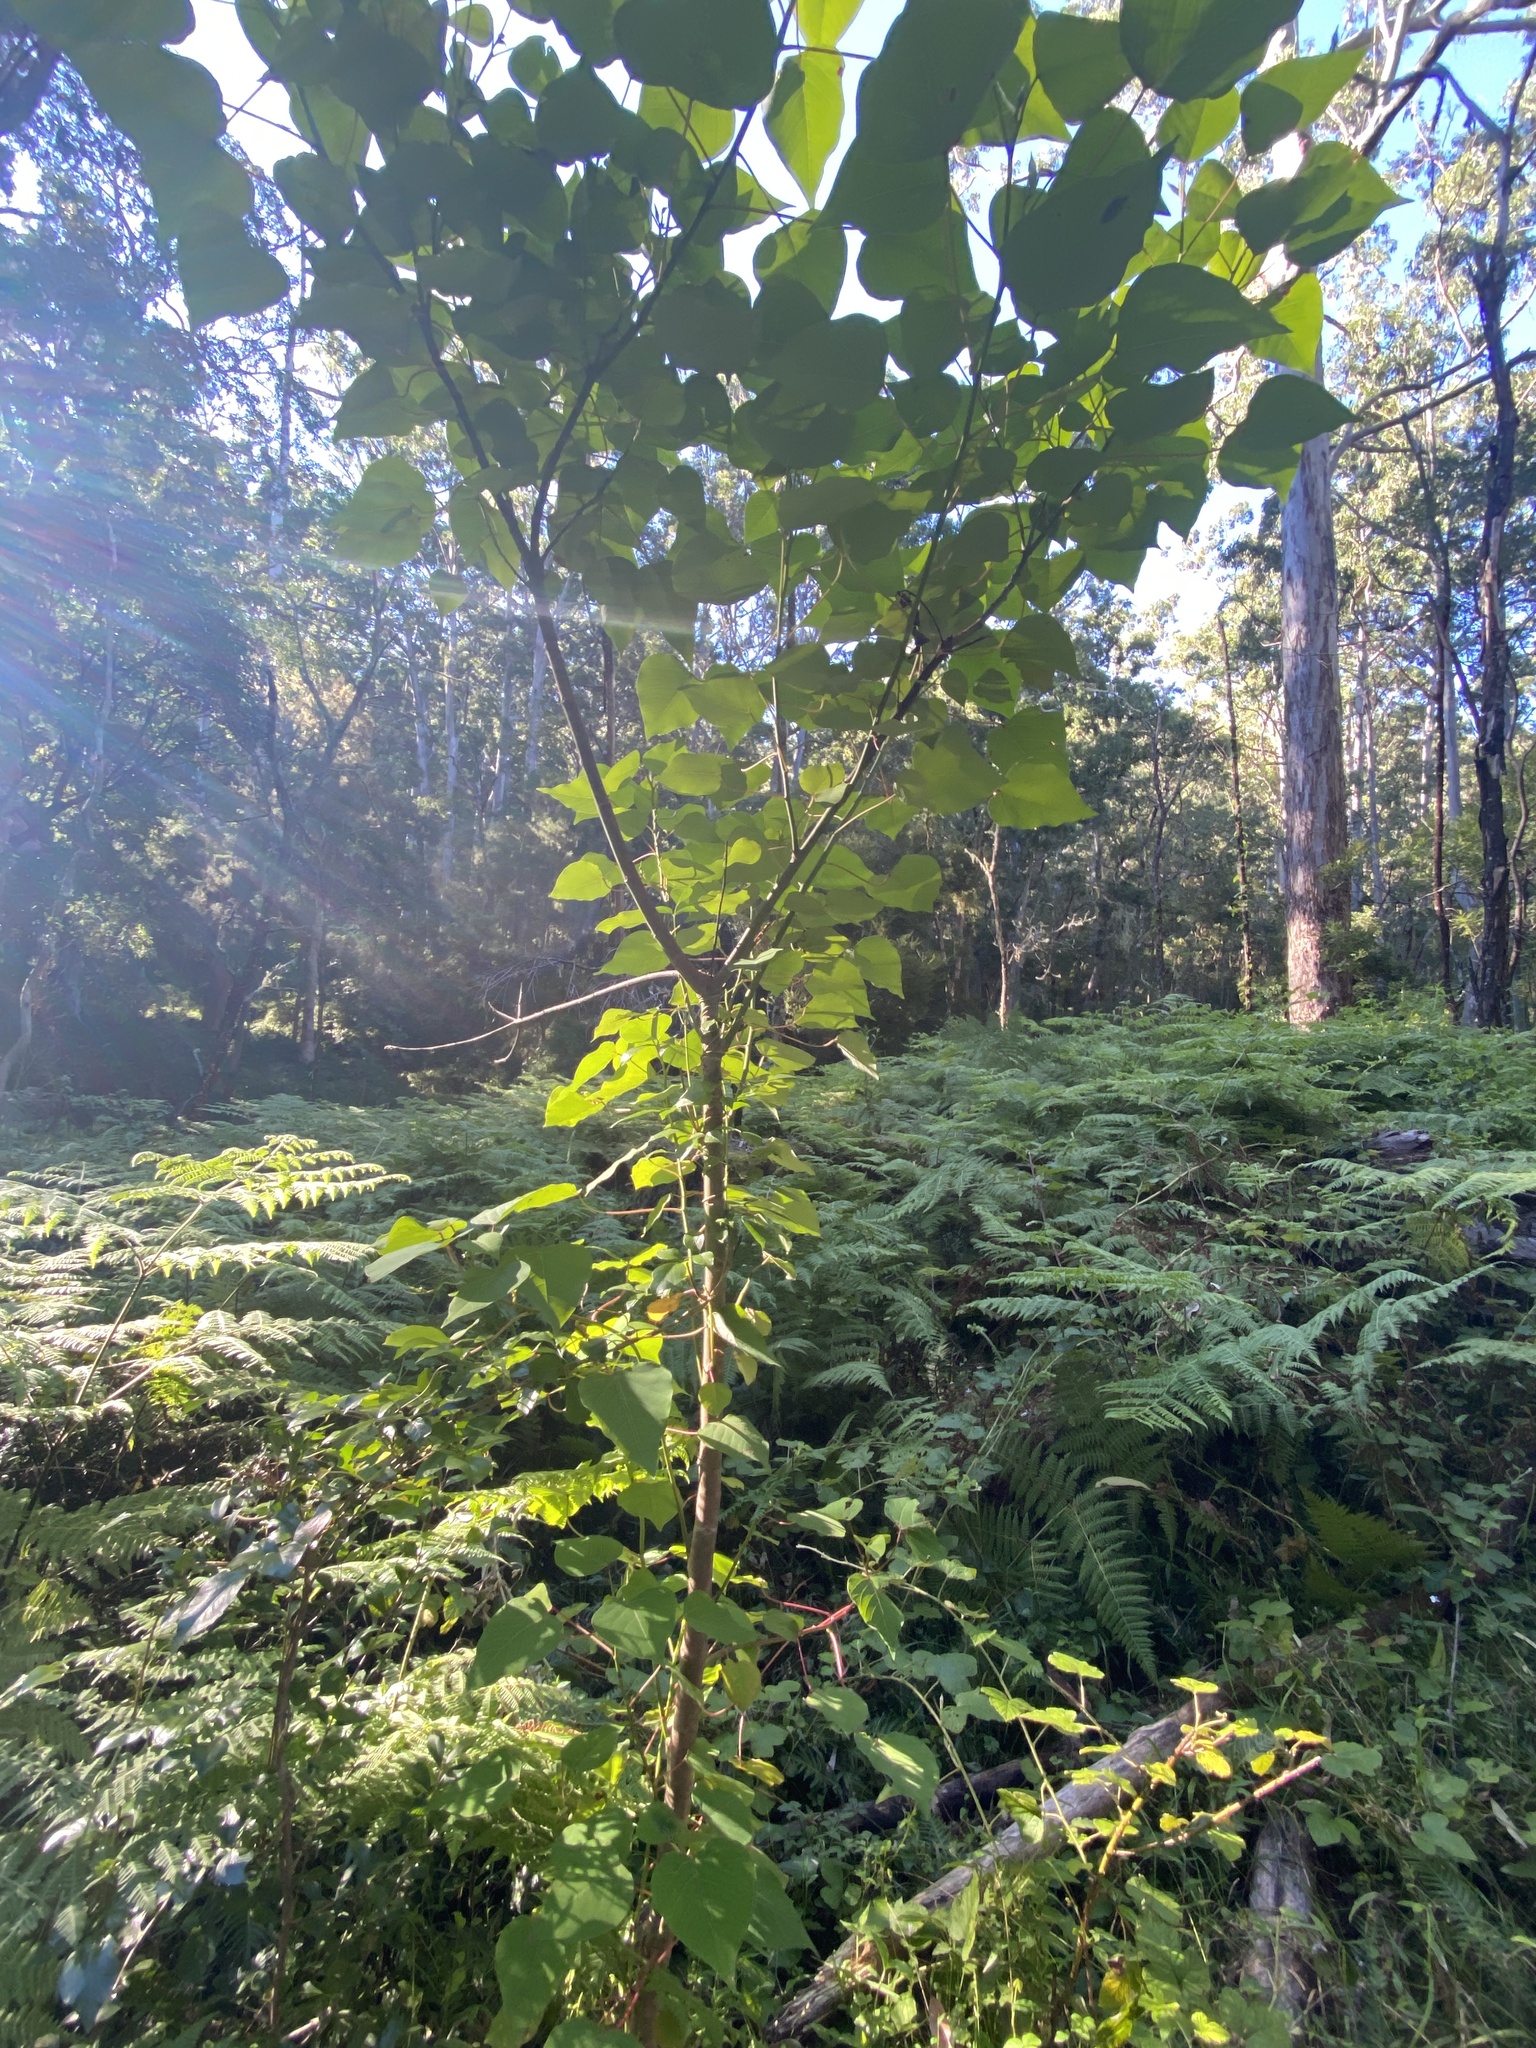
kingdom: Plantae
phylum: Tracheophyta
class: Magnoliopsida
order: Malpighiales
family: Euphorbiaceae
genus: Homalanthus
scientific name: Homalanthus populifolius
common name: Queensland poplar
